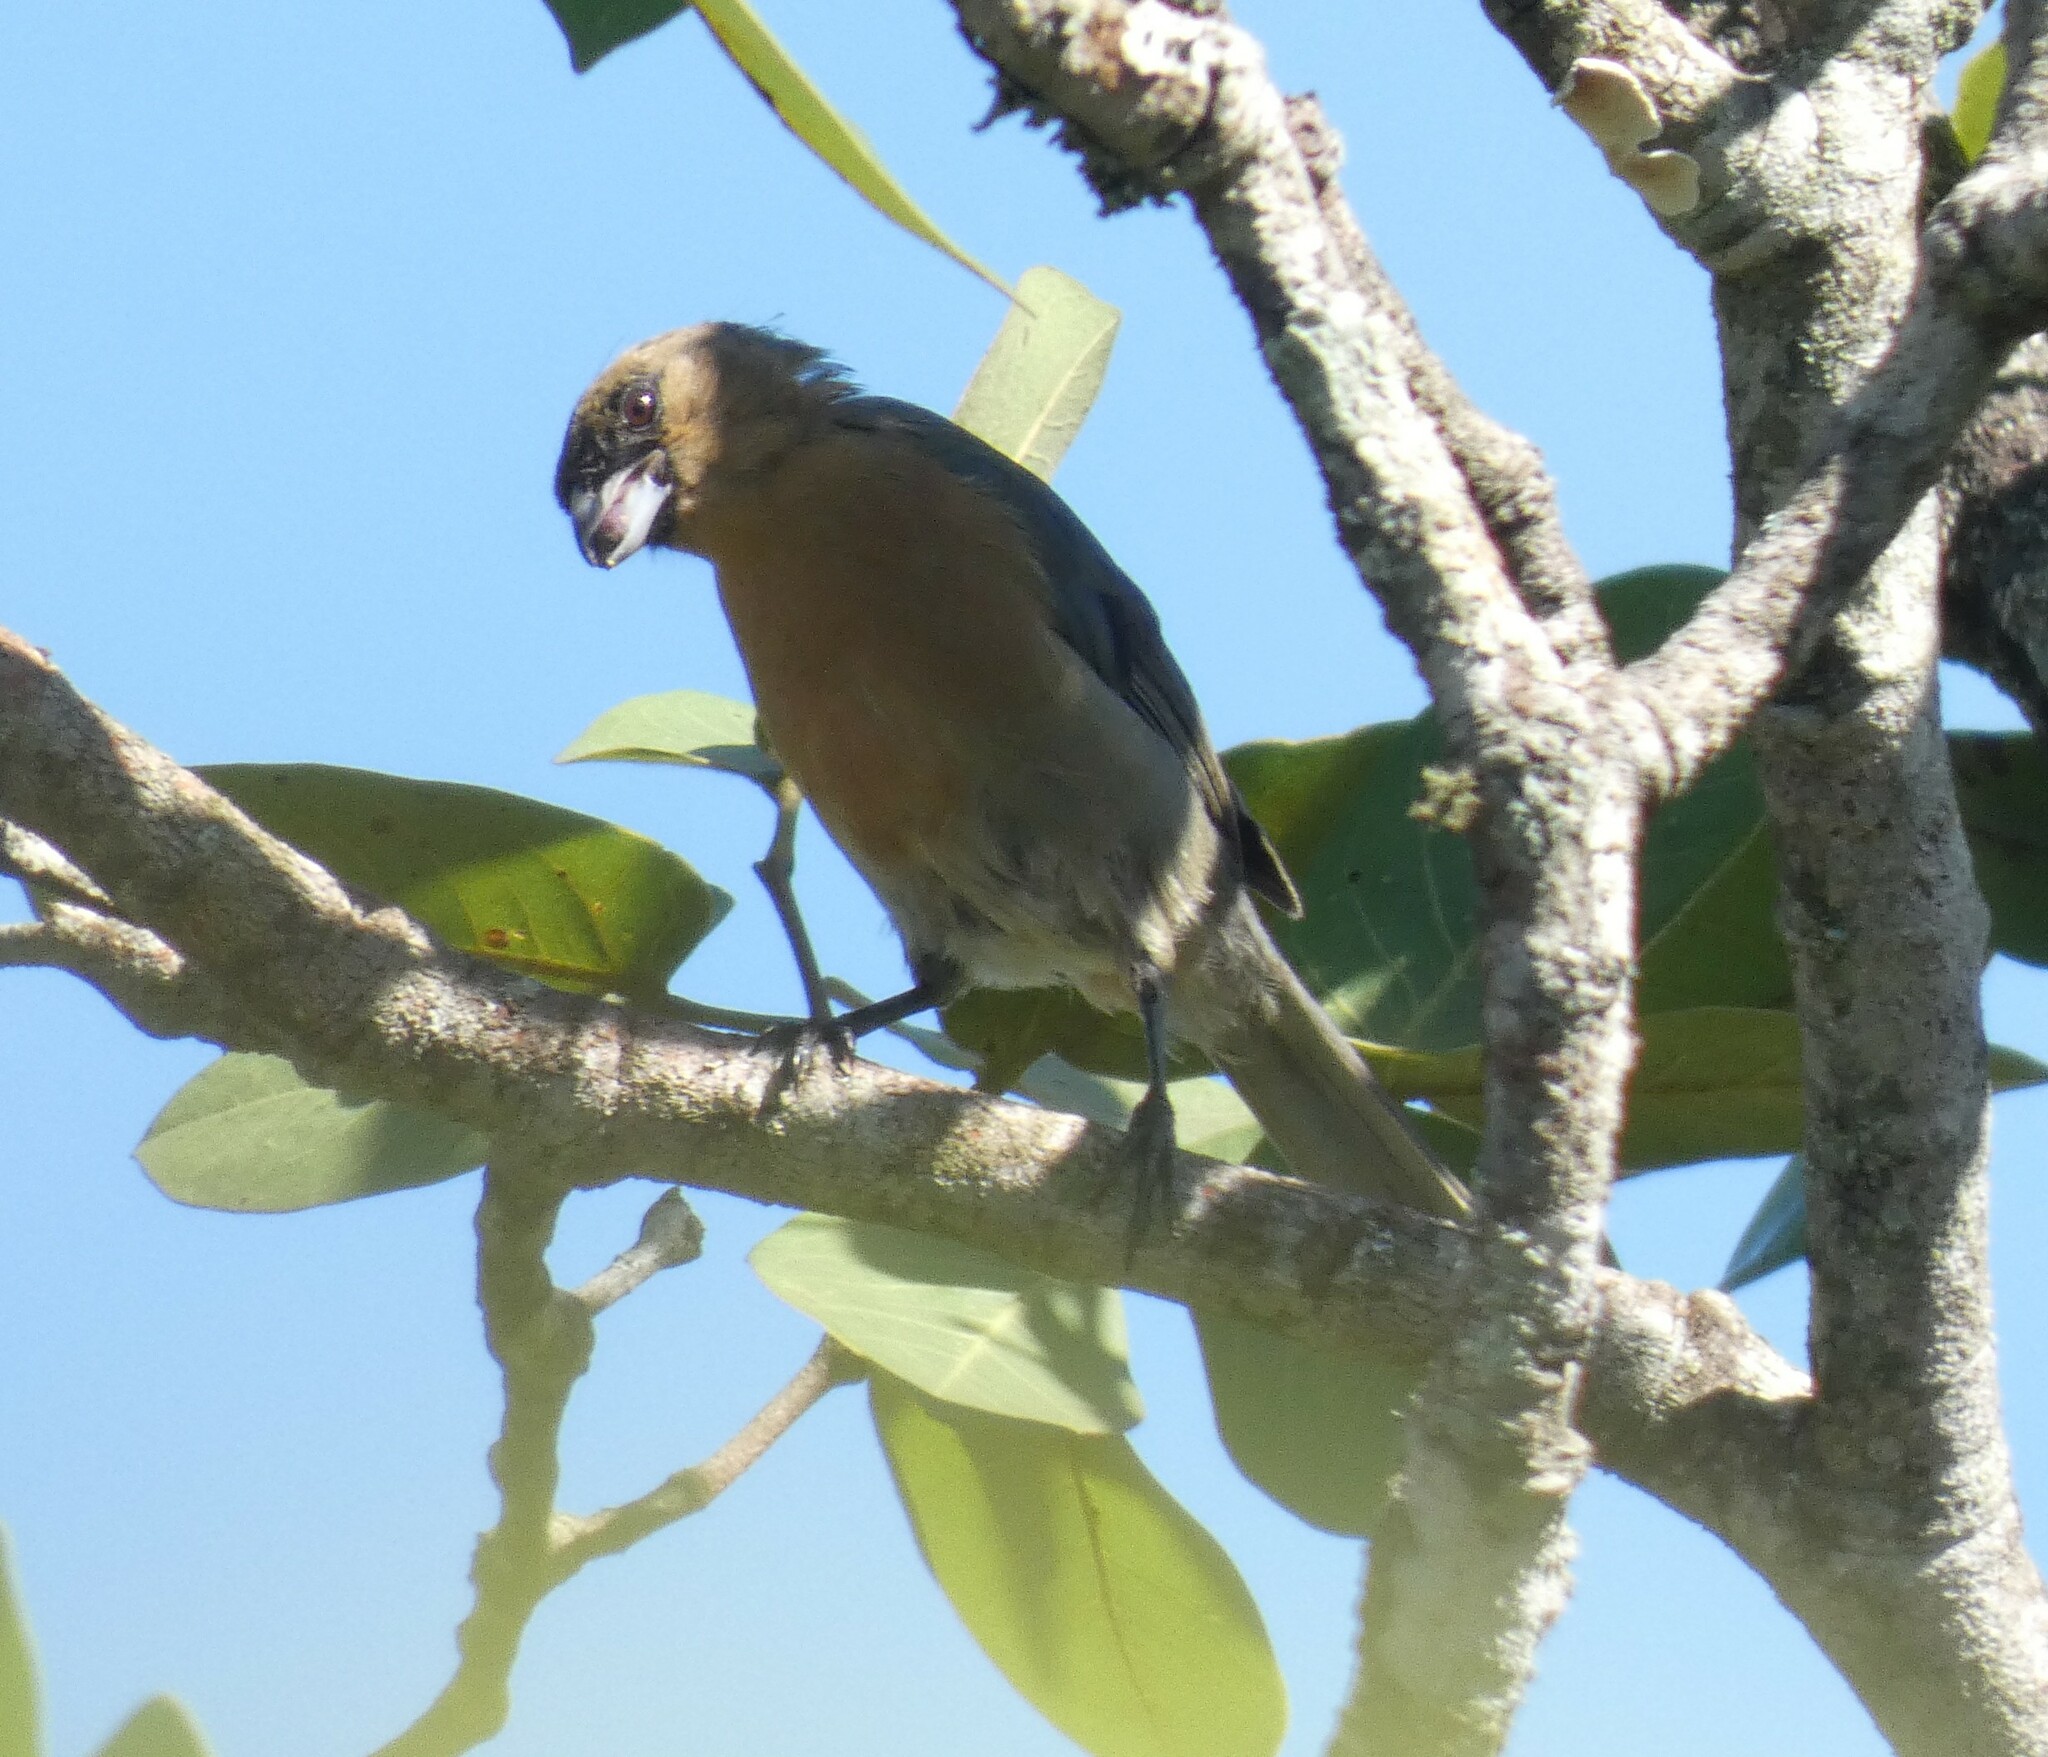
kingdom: Animalia
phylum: Chordata
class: Aves
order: Passeriformes
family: Thraupidae
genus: Schistochlamys
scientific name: Schistochlamys ruficapillus
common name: Cinnamon tanager
